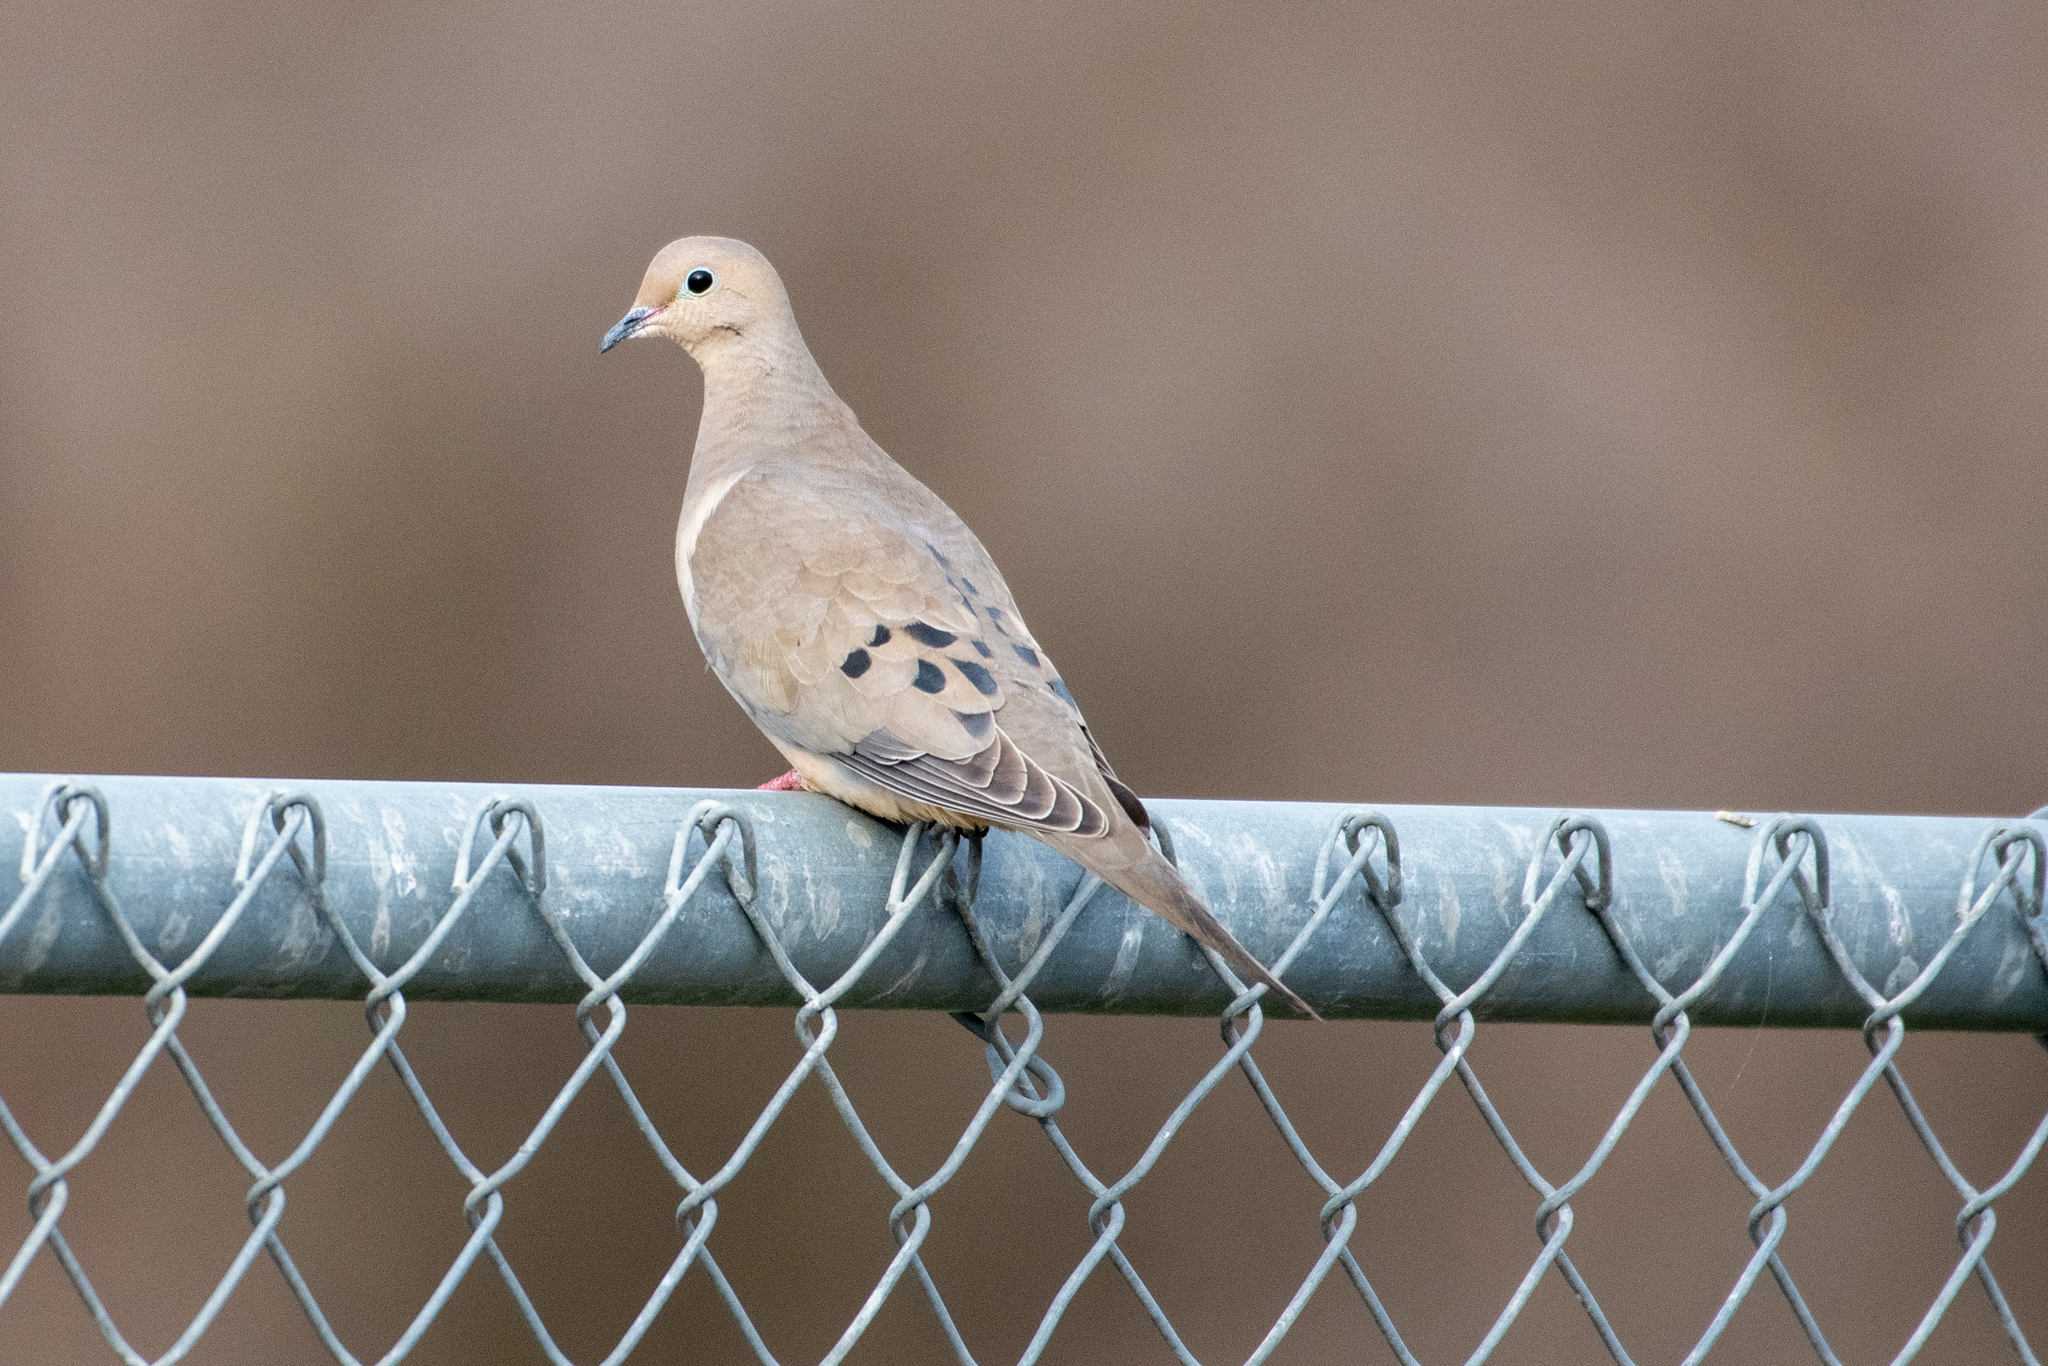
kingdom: Animalia
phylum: Chordata
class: Aves
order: Columbiformes
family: Columbidae
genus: Zenaida
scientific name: Zenaida macroura
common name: Mourning dove
